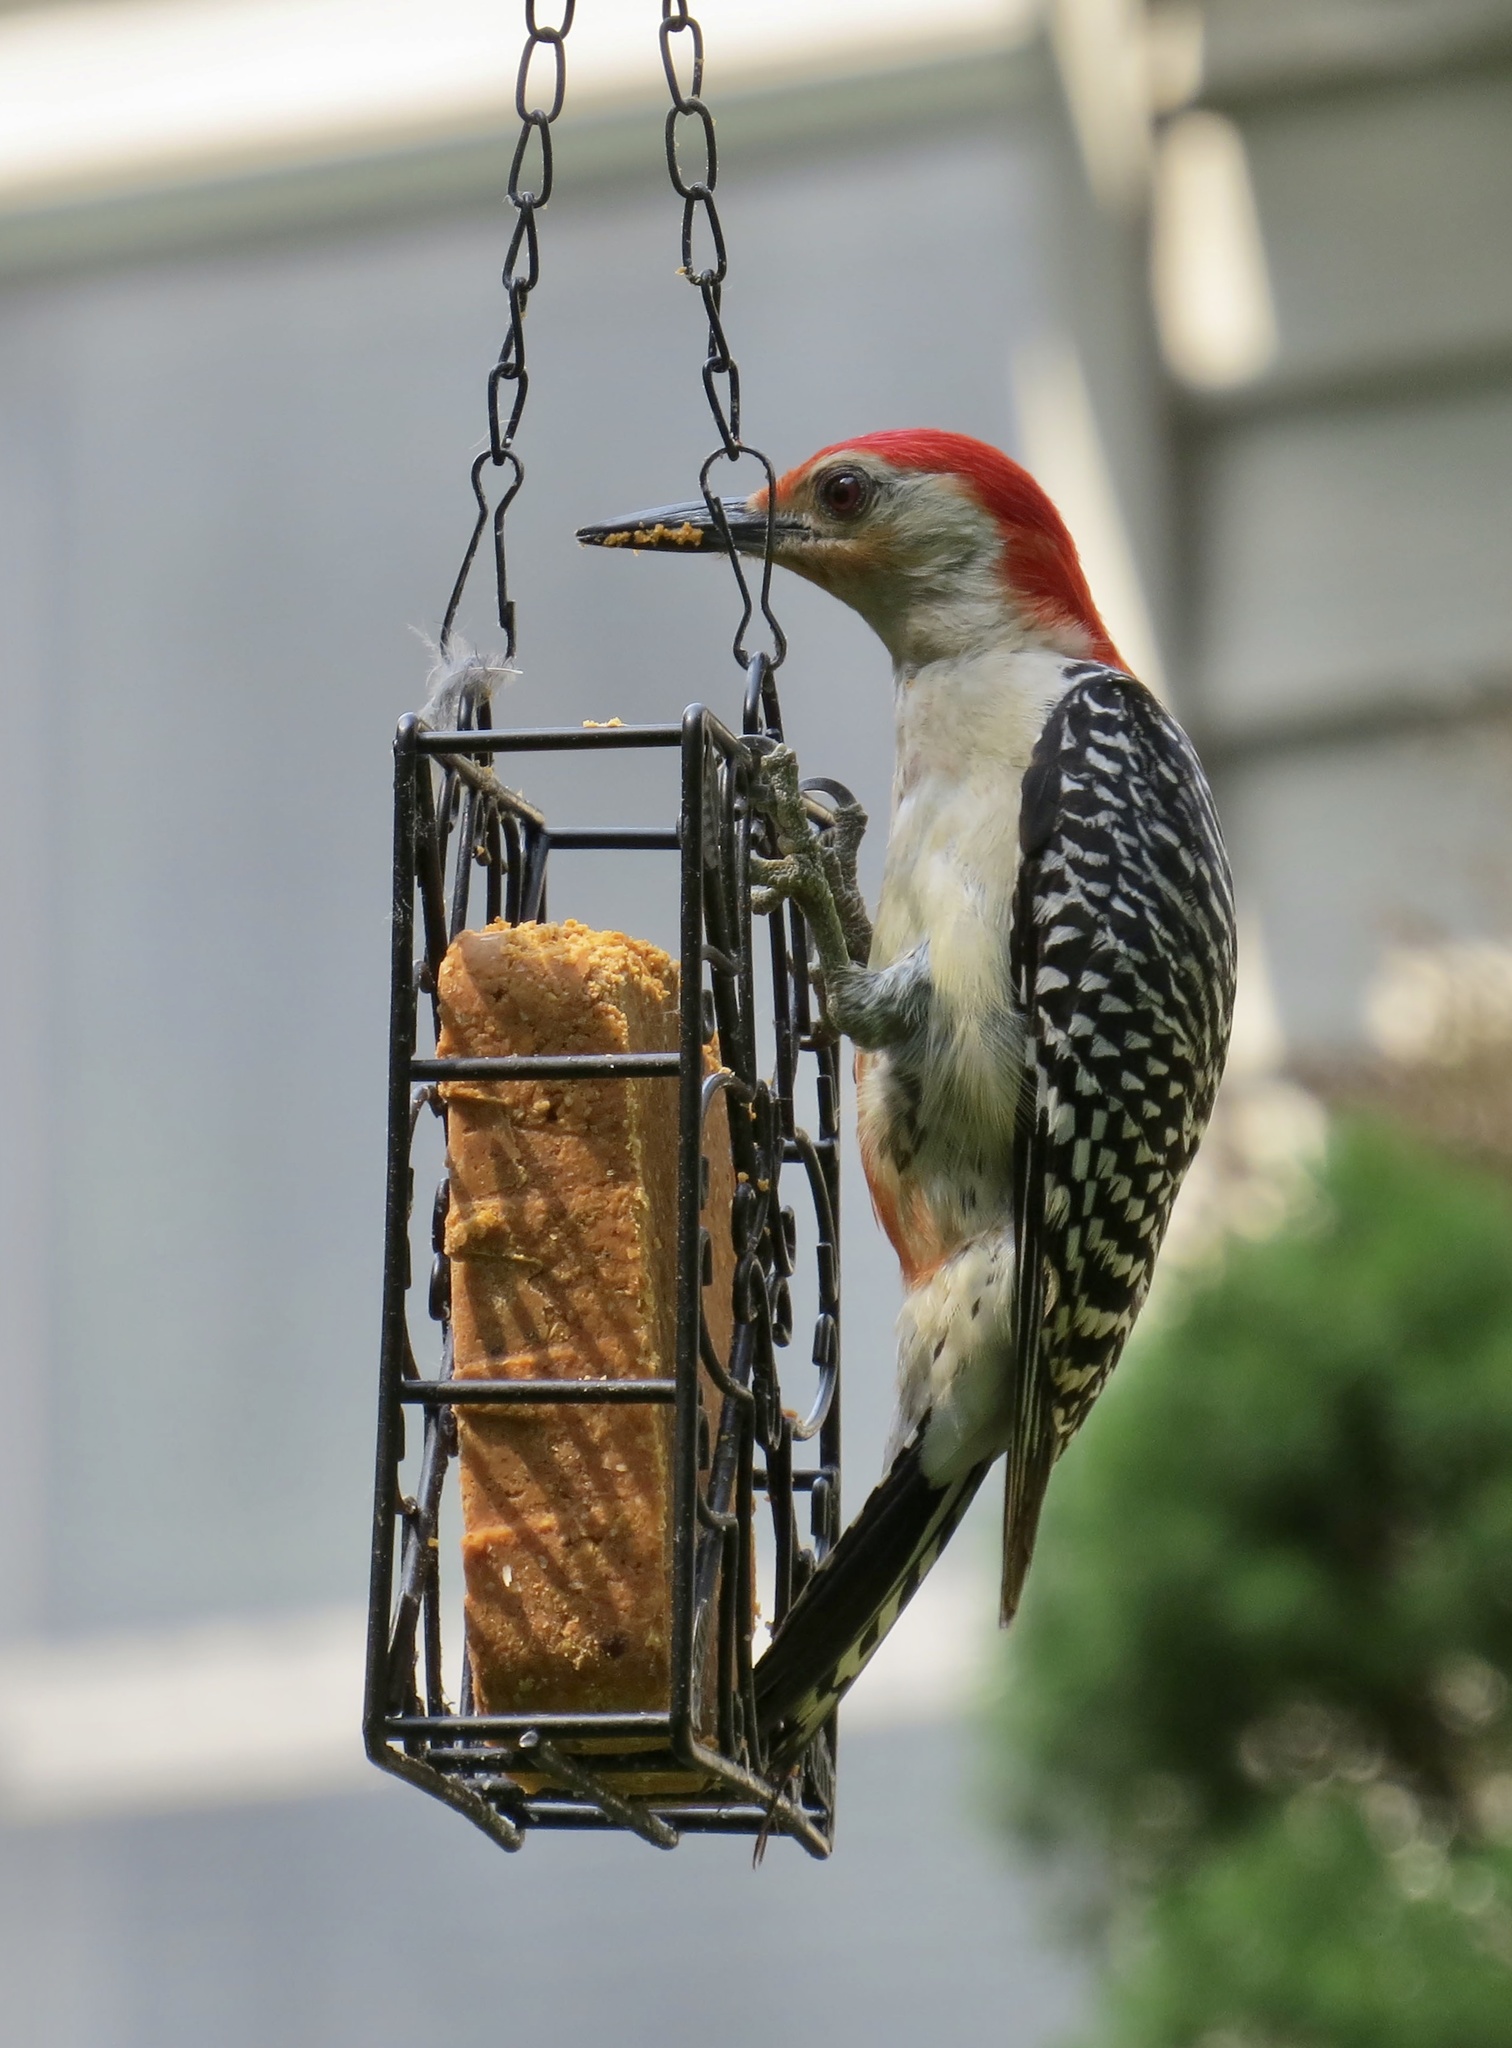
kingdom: Animalia
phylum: Chordata
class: Aves
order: Piciformes
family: Picidae
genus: Melanerpes
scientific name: Melanerpes carolinus
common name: Red-bellied woodpecker
